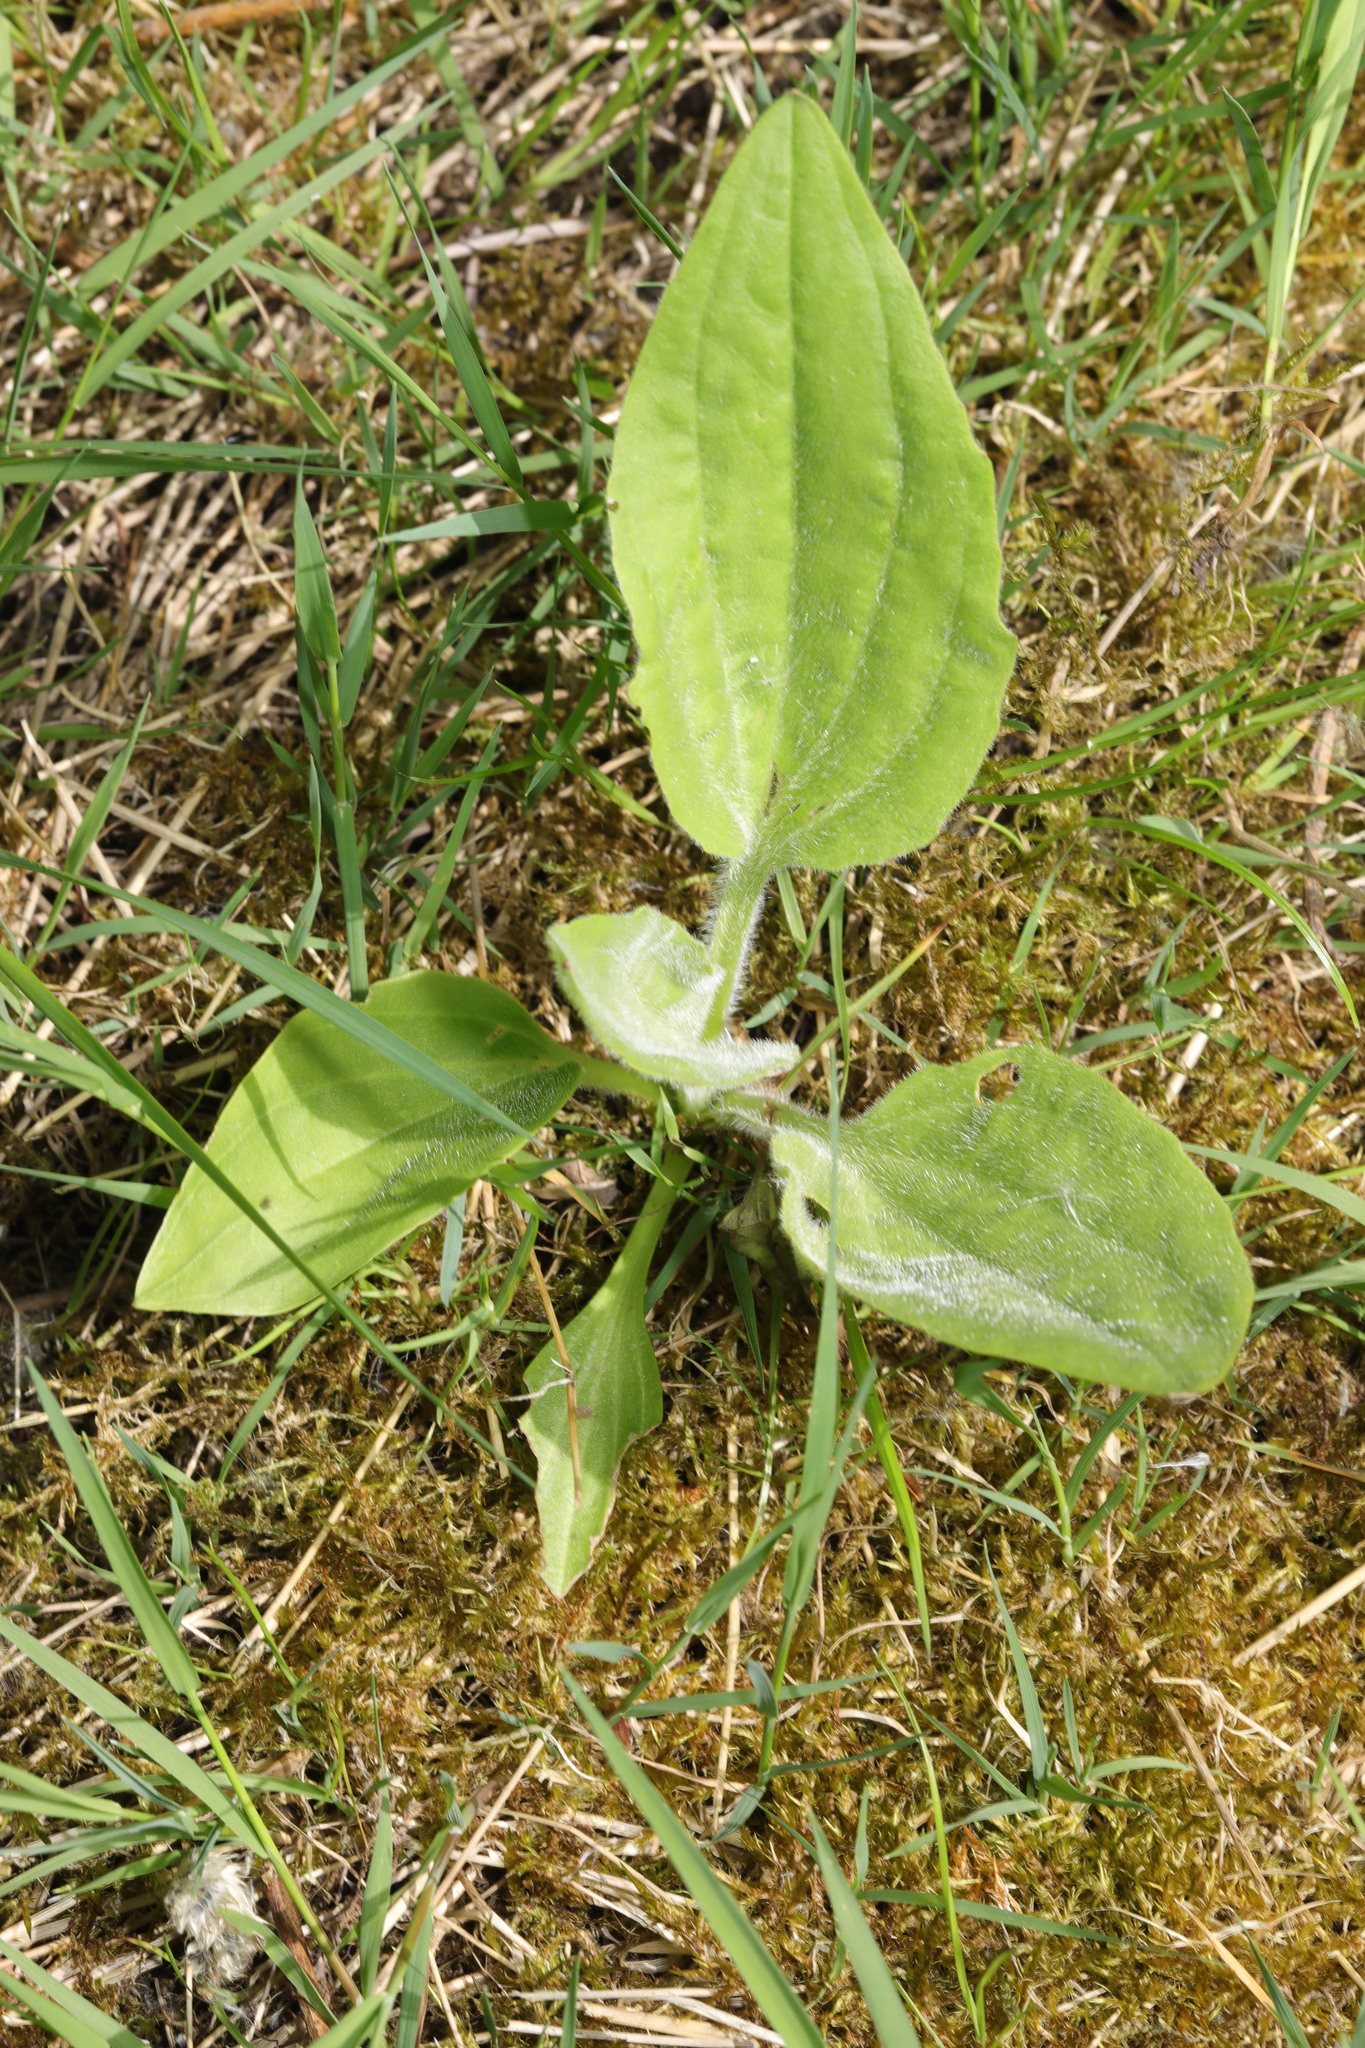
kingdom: Plantae
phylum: Tracheophyta
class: Magnoliopsida
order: Lamiales
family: Plantaginaceae
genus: Plantago
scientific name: Plantago major
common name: Common plantain
